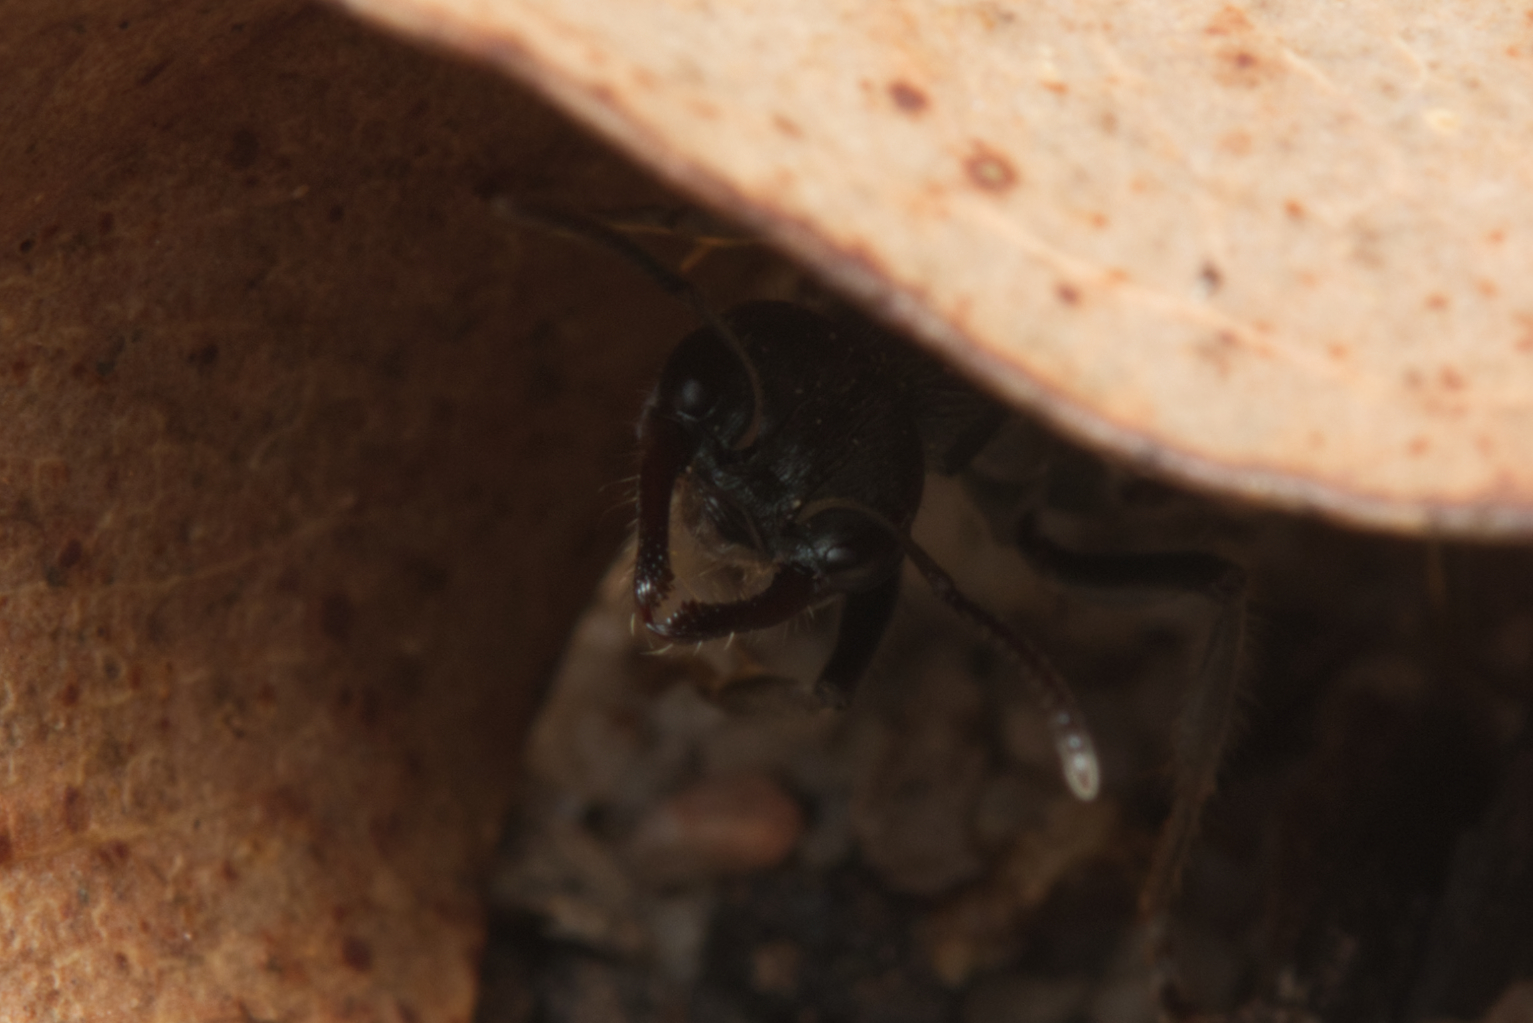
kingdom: Animalia
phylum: Arthropoda
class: Insecta
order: Hymenoptera
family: Formicidae
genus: Myrmecia
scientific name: Myrmecia gilberti
